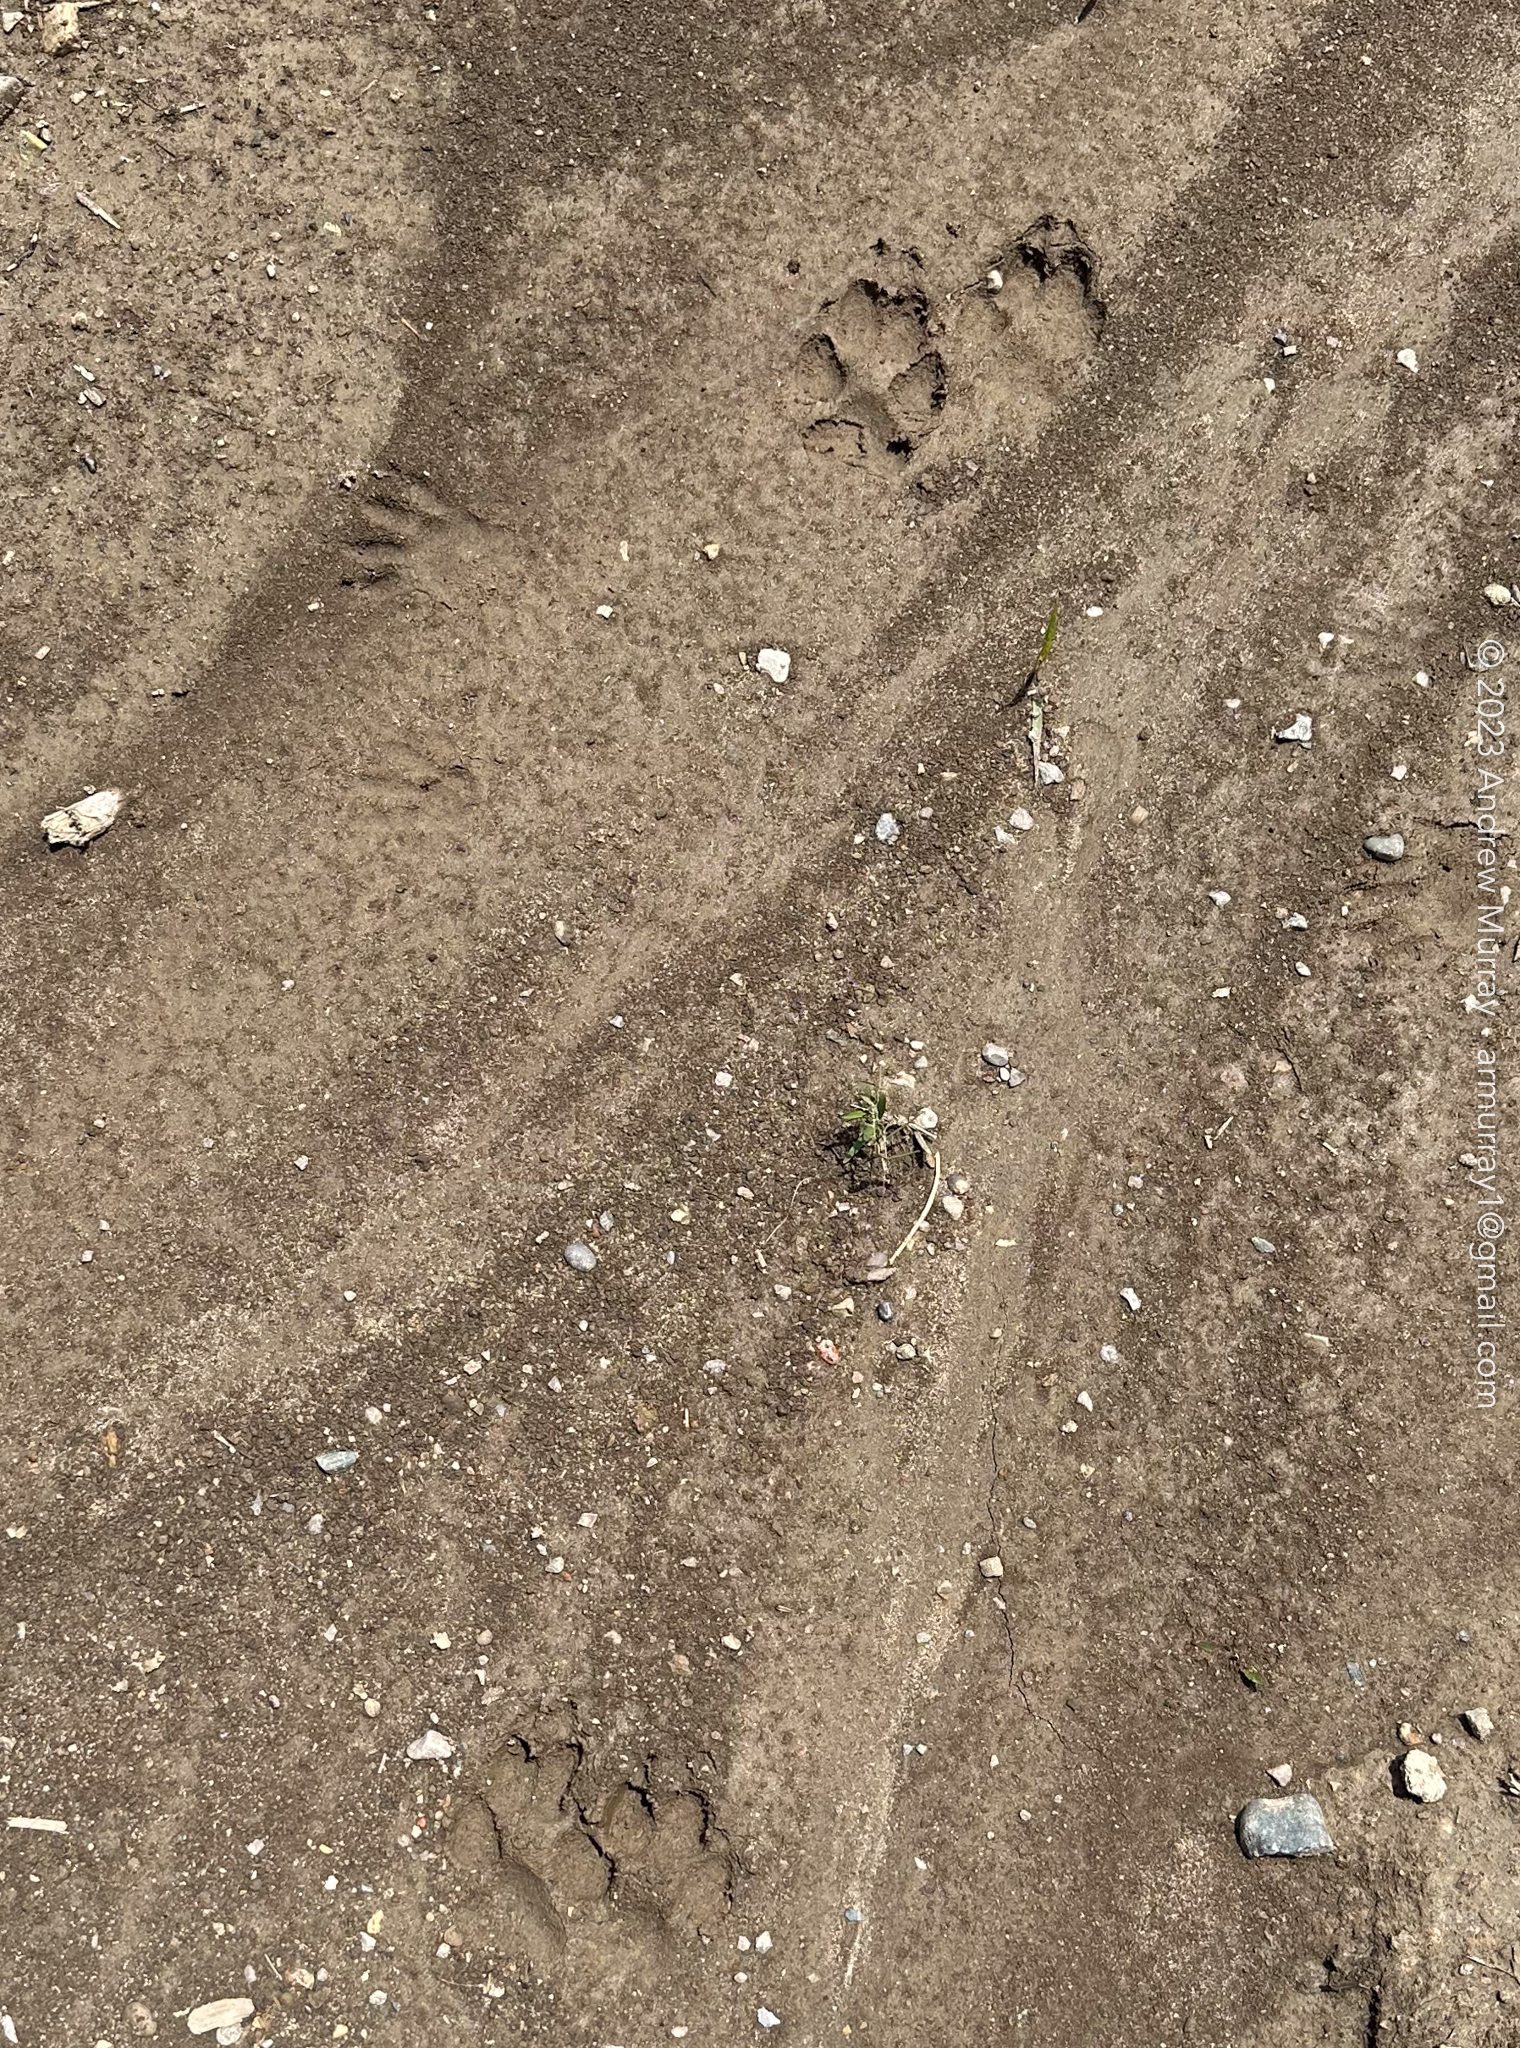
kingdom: Animalia
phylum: Chordata
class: Mammalia
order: Carnivora
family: Canidae
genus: Canis
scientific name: Canis latrans
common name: Coyote
